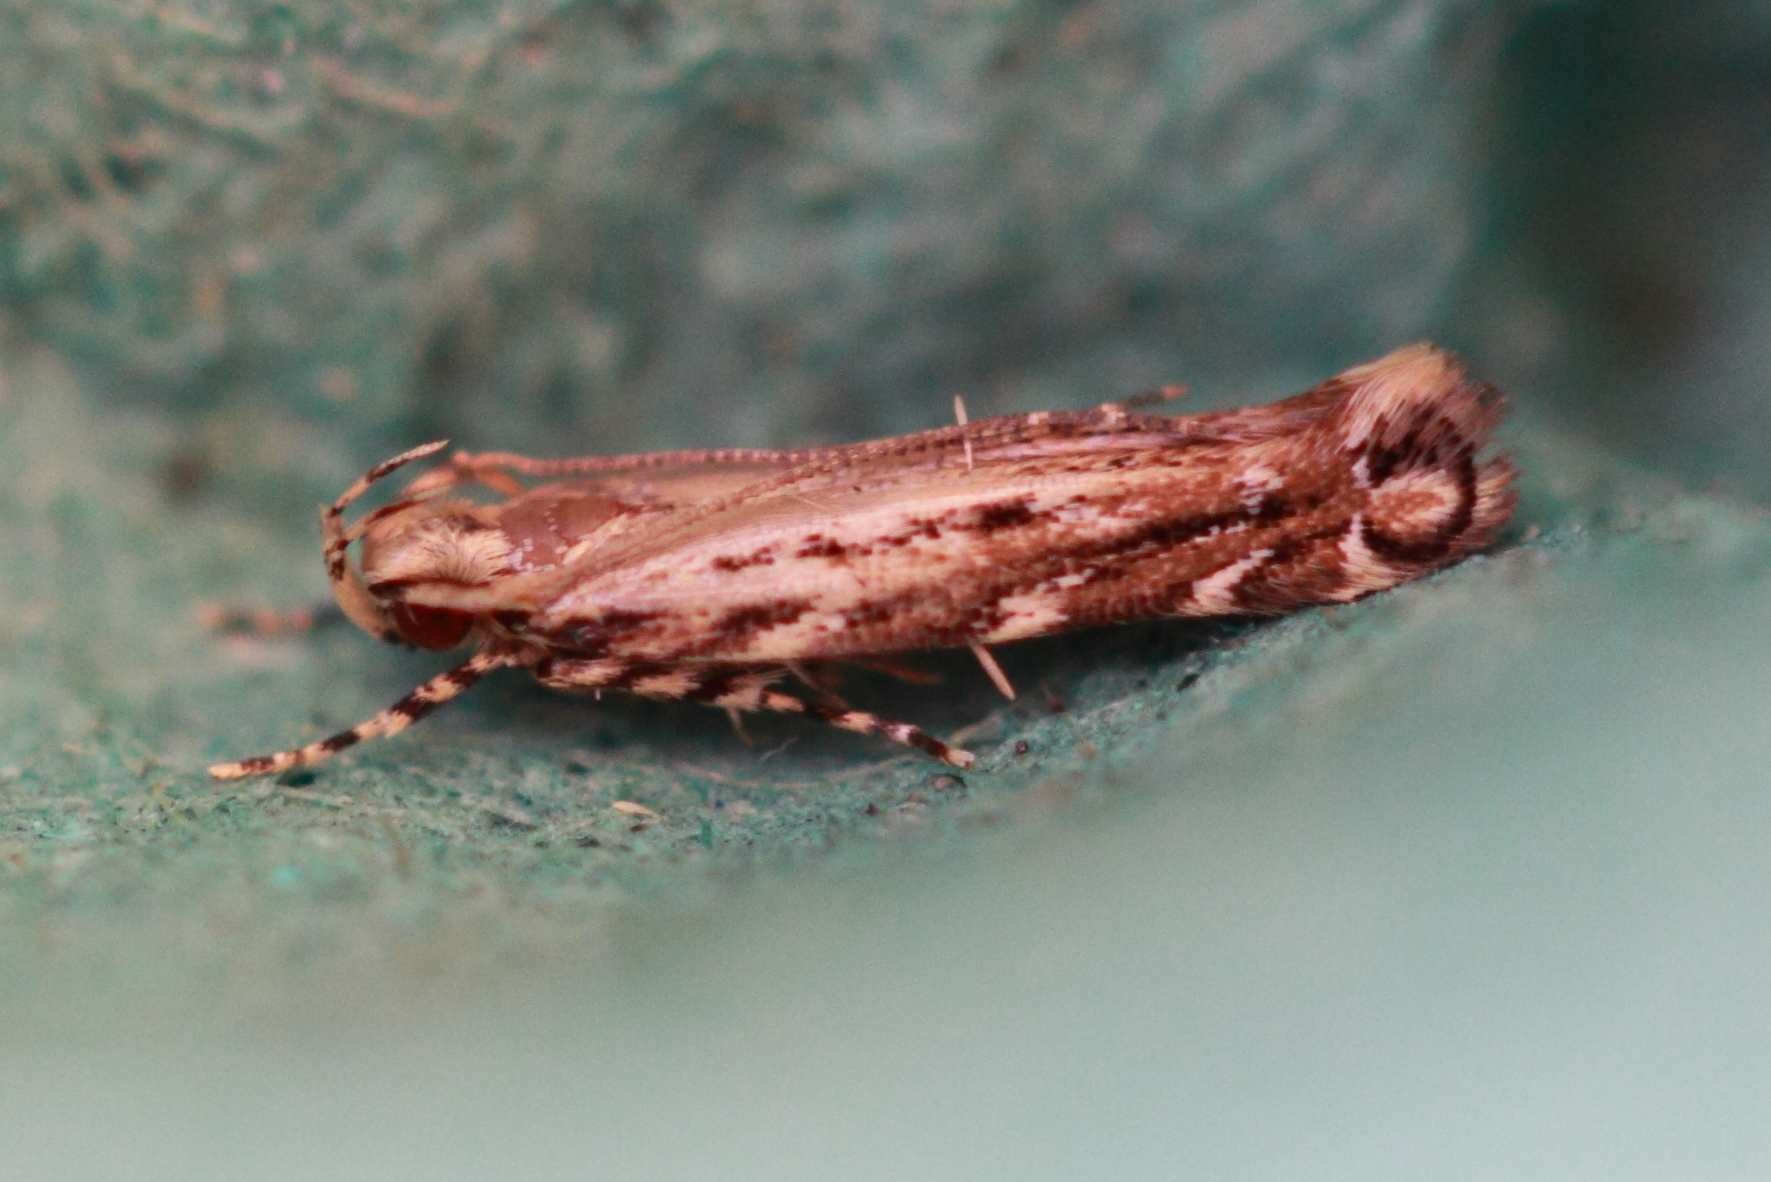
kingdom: Animalia
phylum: Arthropoda
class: Insecta
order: Lepidoptera
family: Cosmopterigidae
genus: Otonoma
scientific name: Otonoma sophronica
